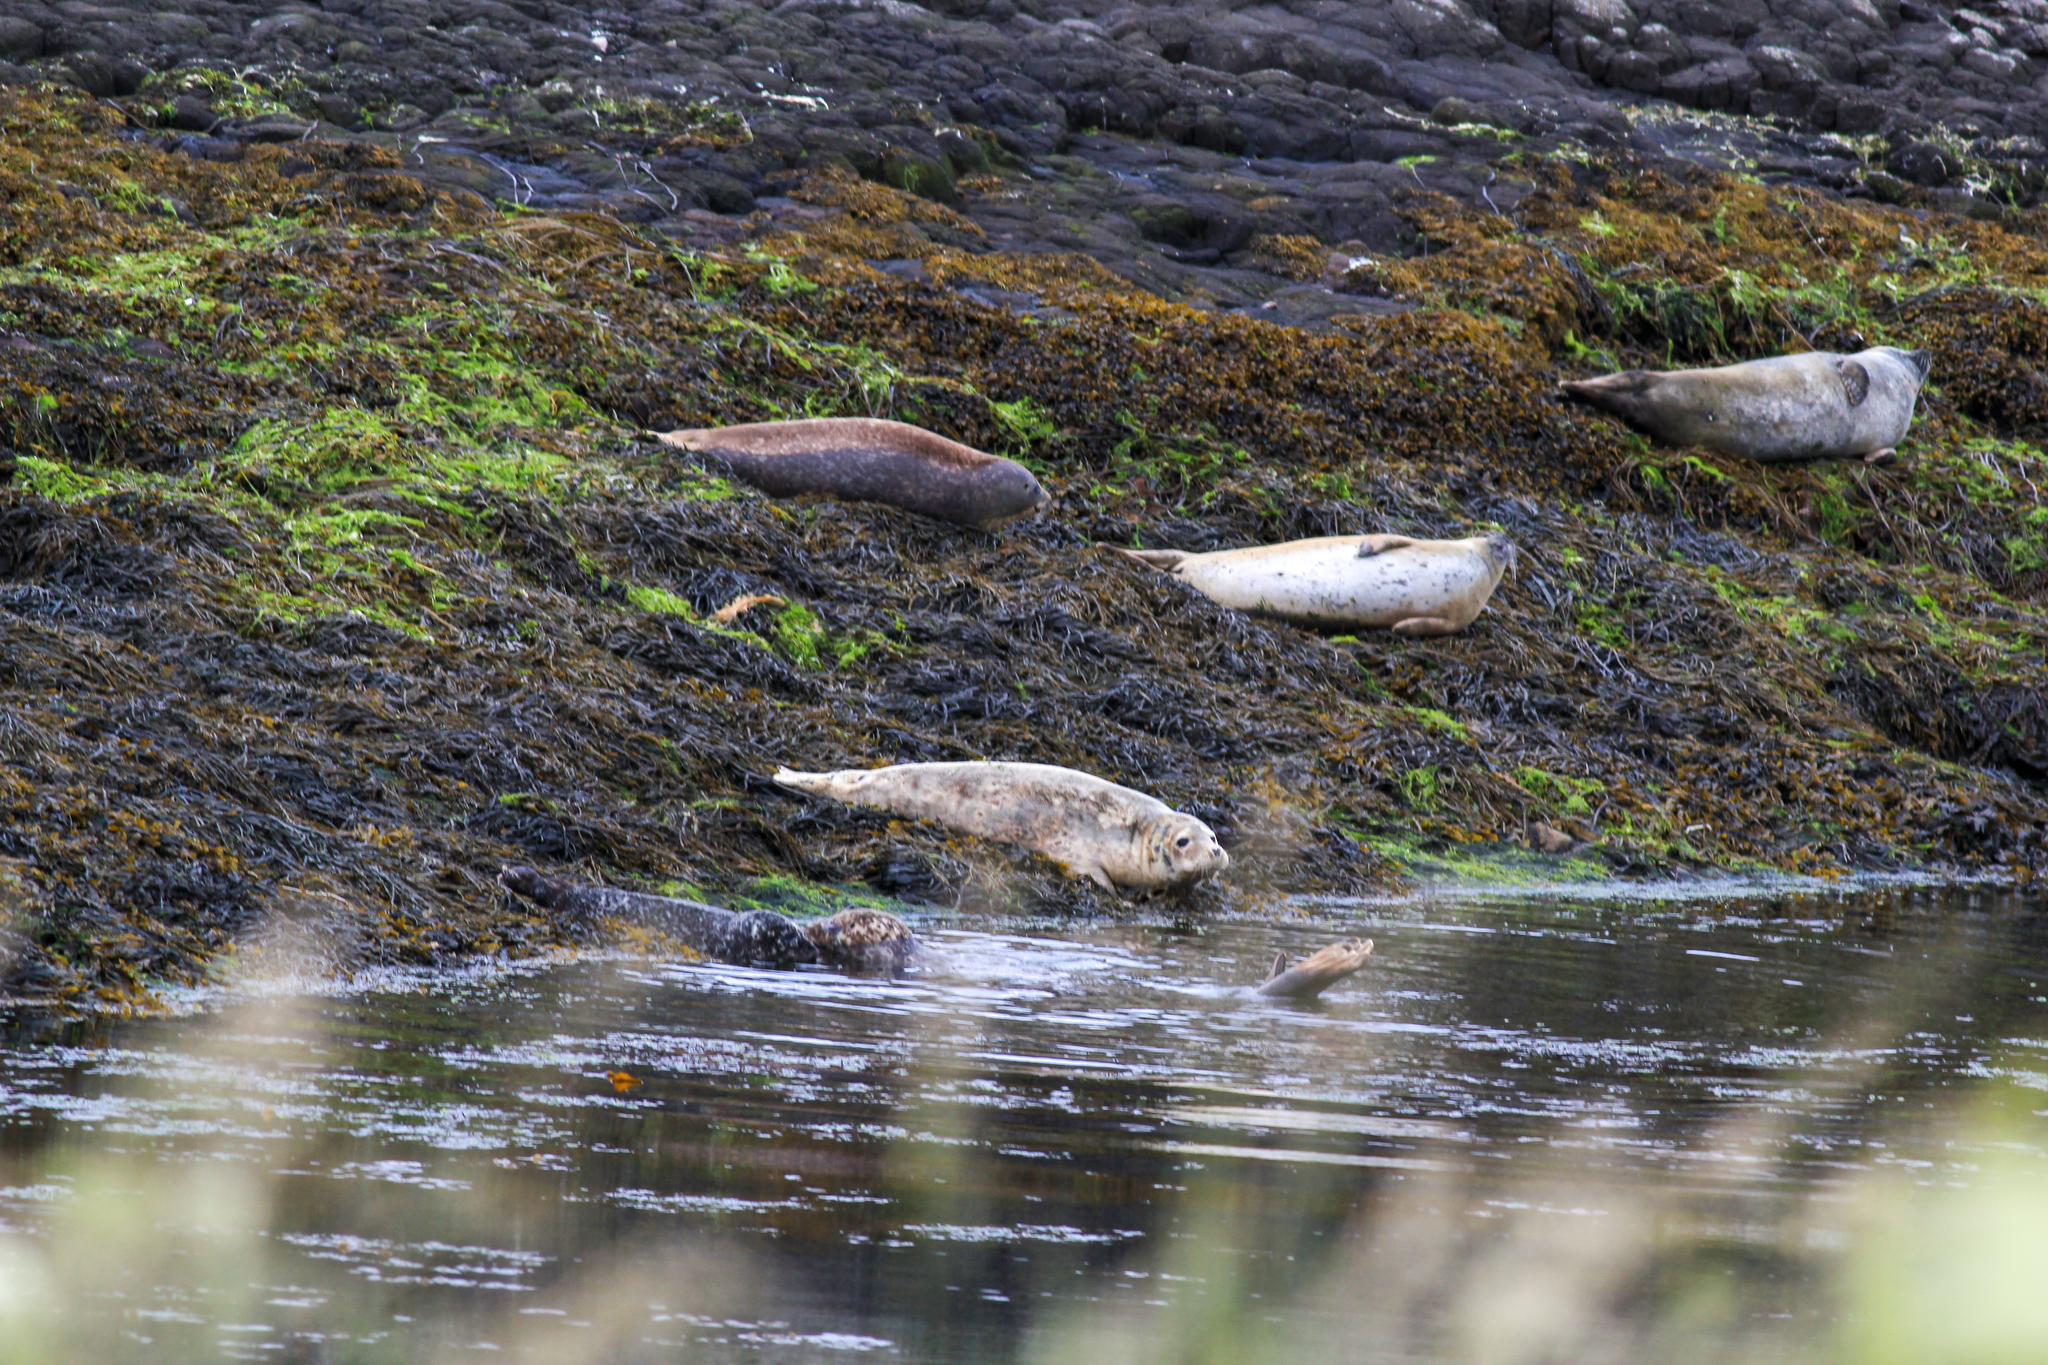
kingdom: Animalia
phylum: Chordata
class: Mammalia
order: Carnivora
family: Phocidae
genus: Halichoerus
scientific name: Halichoerus grypus
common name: Grey seal
